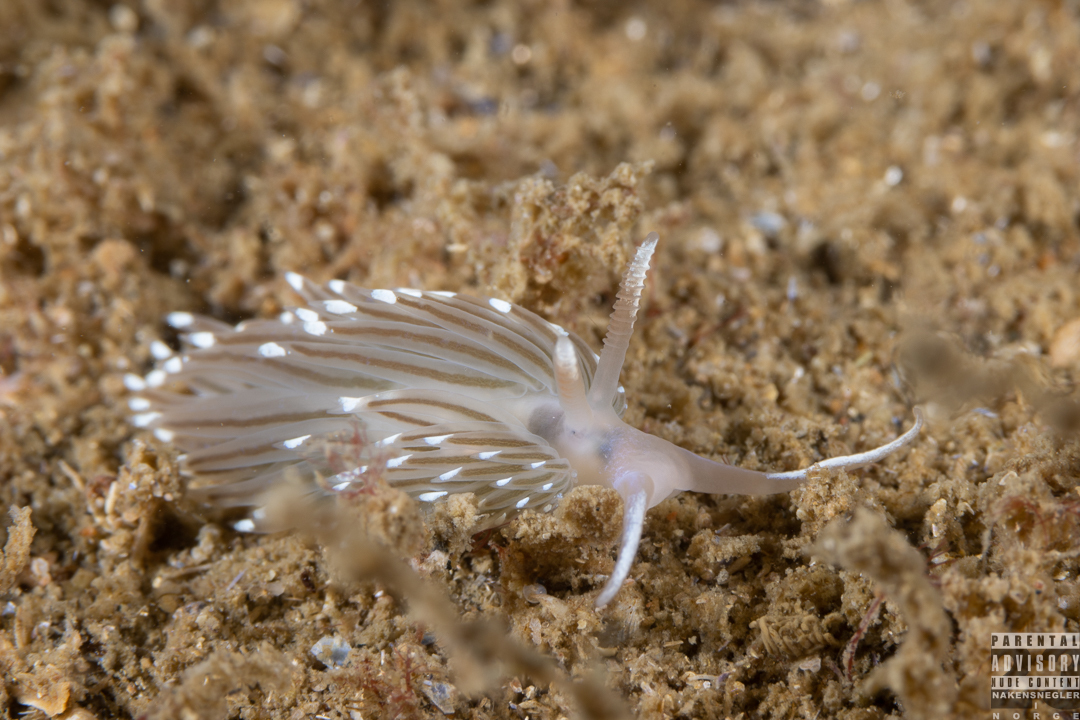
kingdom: Animalia
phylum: Mollusca
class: Gastropoda
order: Nudibranchia
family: Facelinidae
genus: Facelina
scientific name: Facelina bostoniensis
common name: Boston facelina
